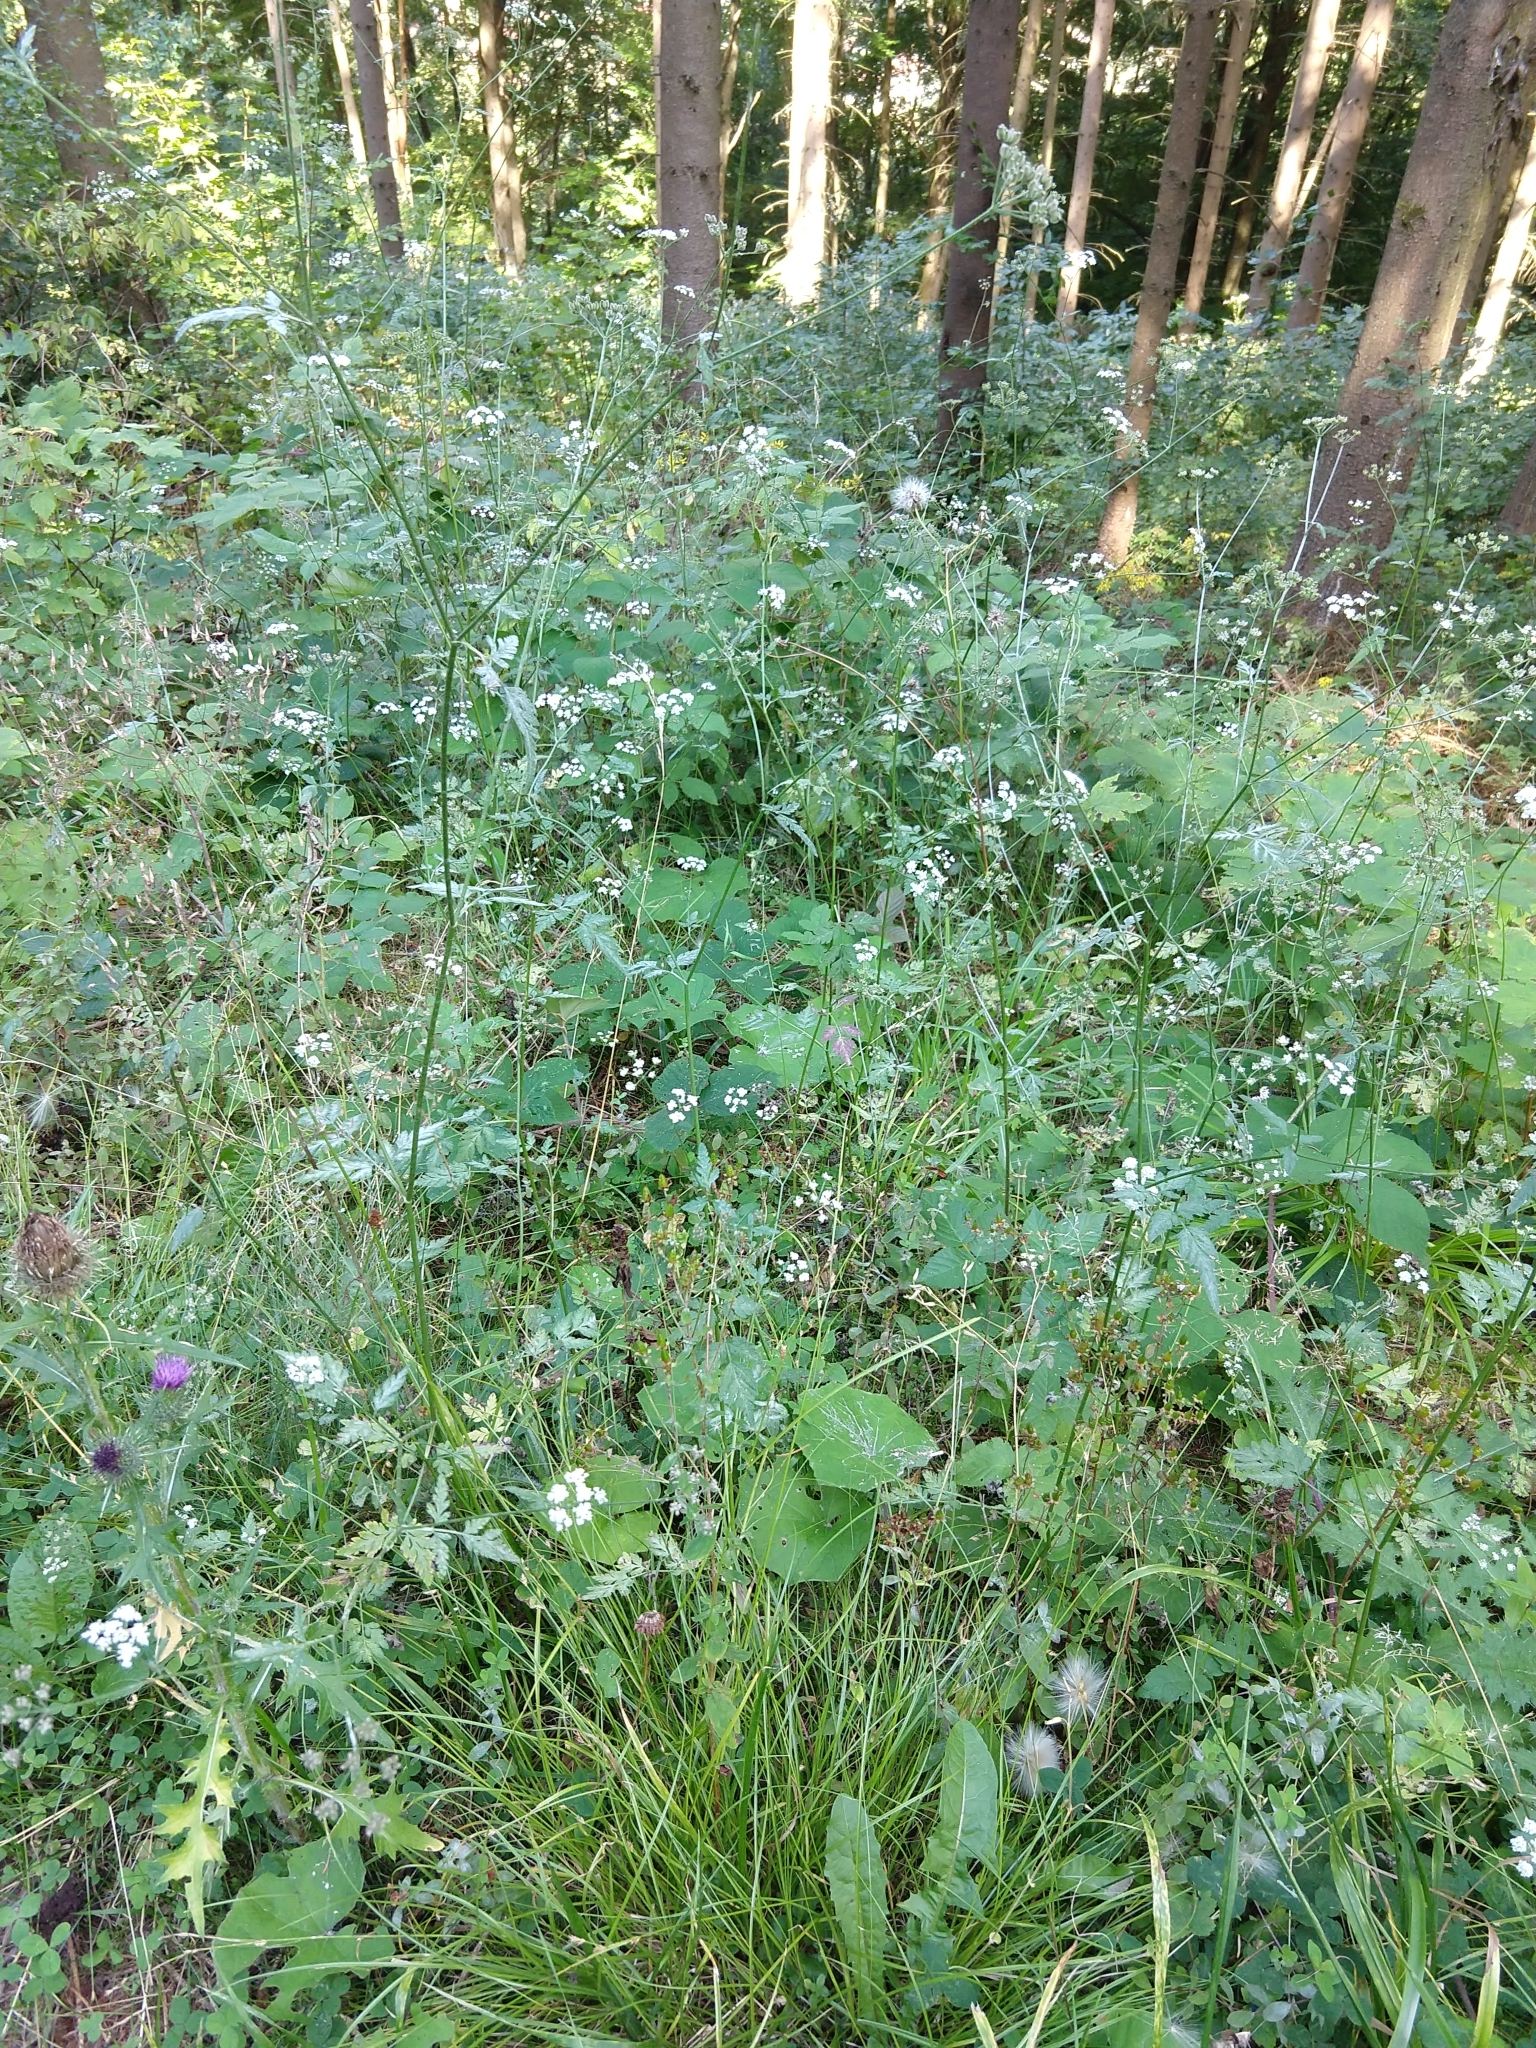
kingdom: Plantae
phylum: Tracheophyta
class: Magnoliopsida
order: Apiales
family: Apiaceae
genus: Torilis
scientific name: Torilis japonica
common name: Upright hedge-parsley
